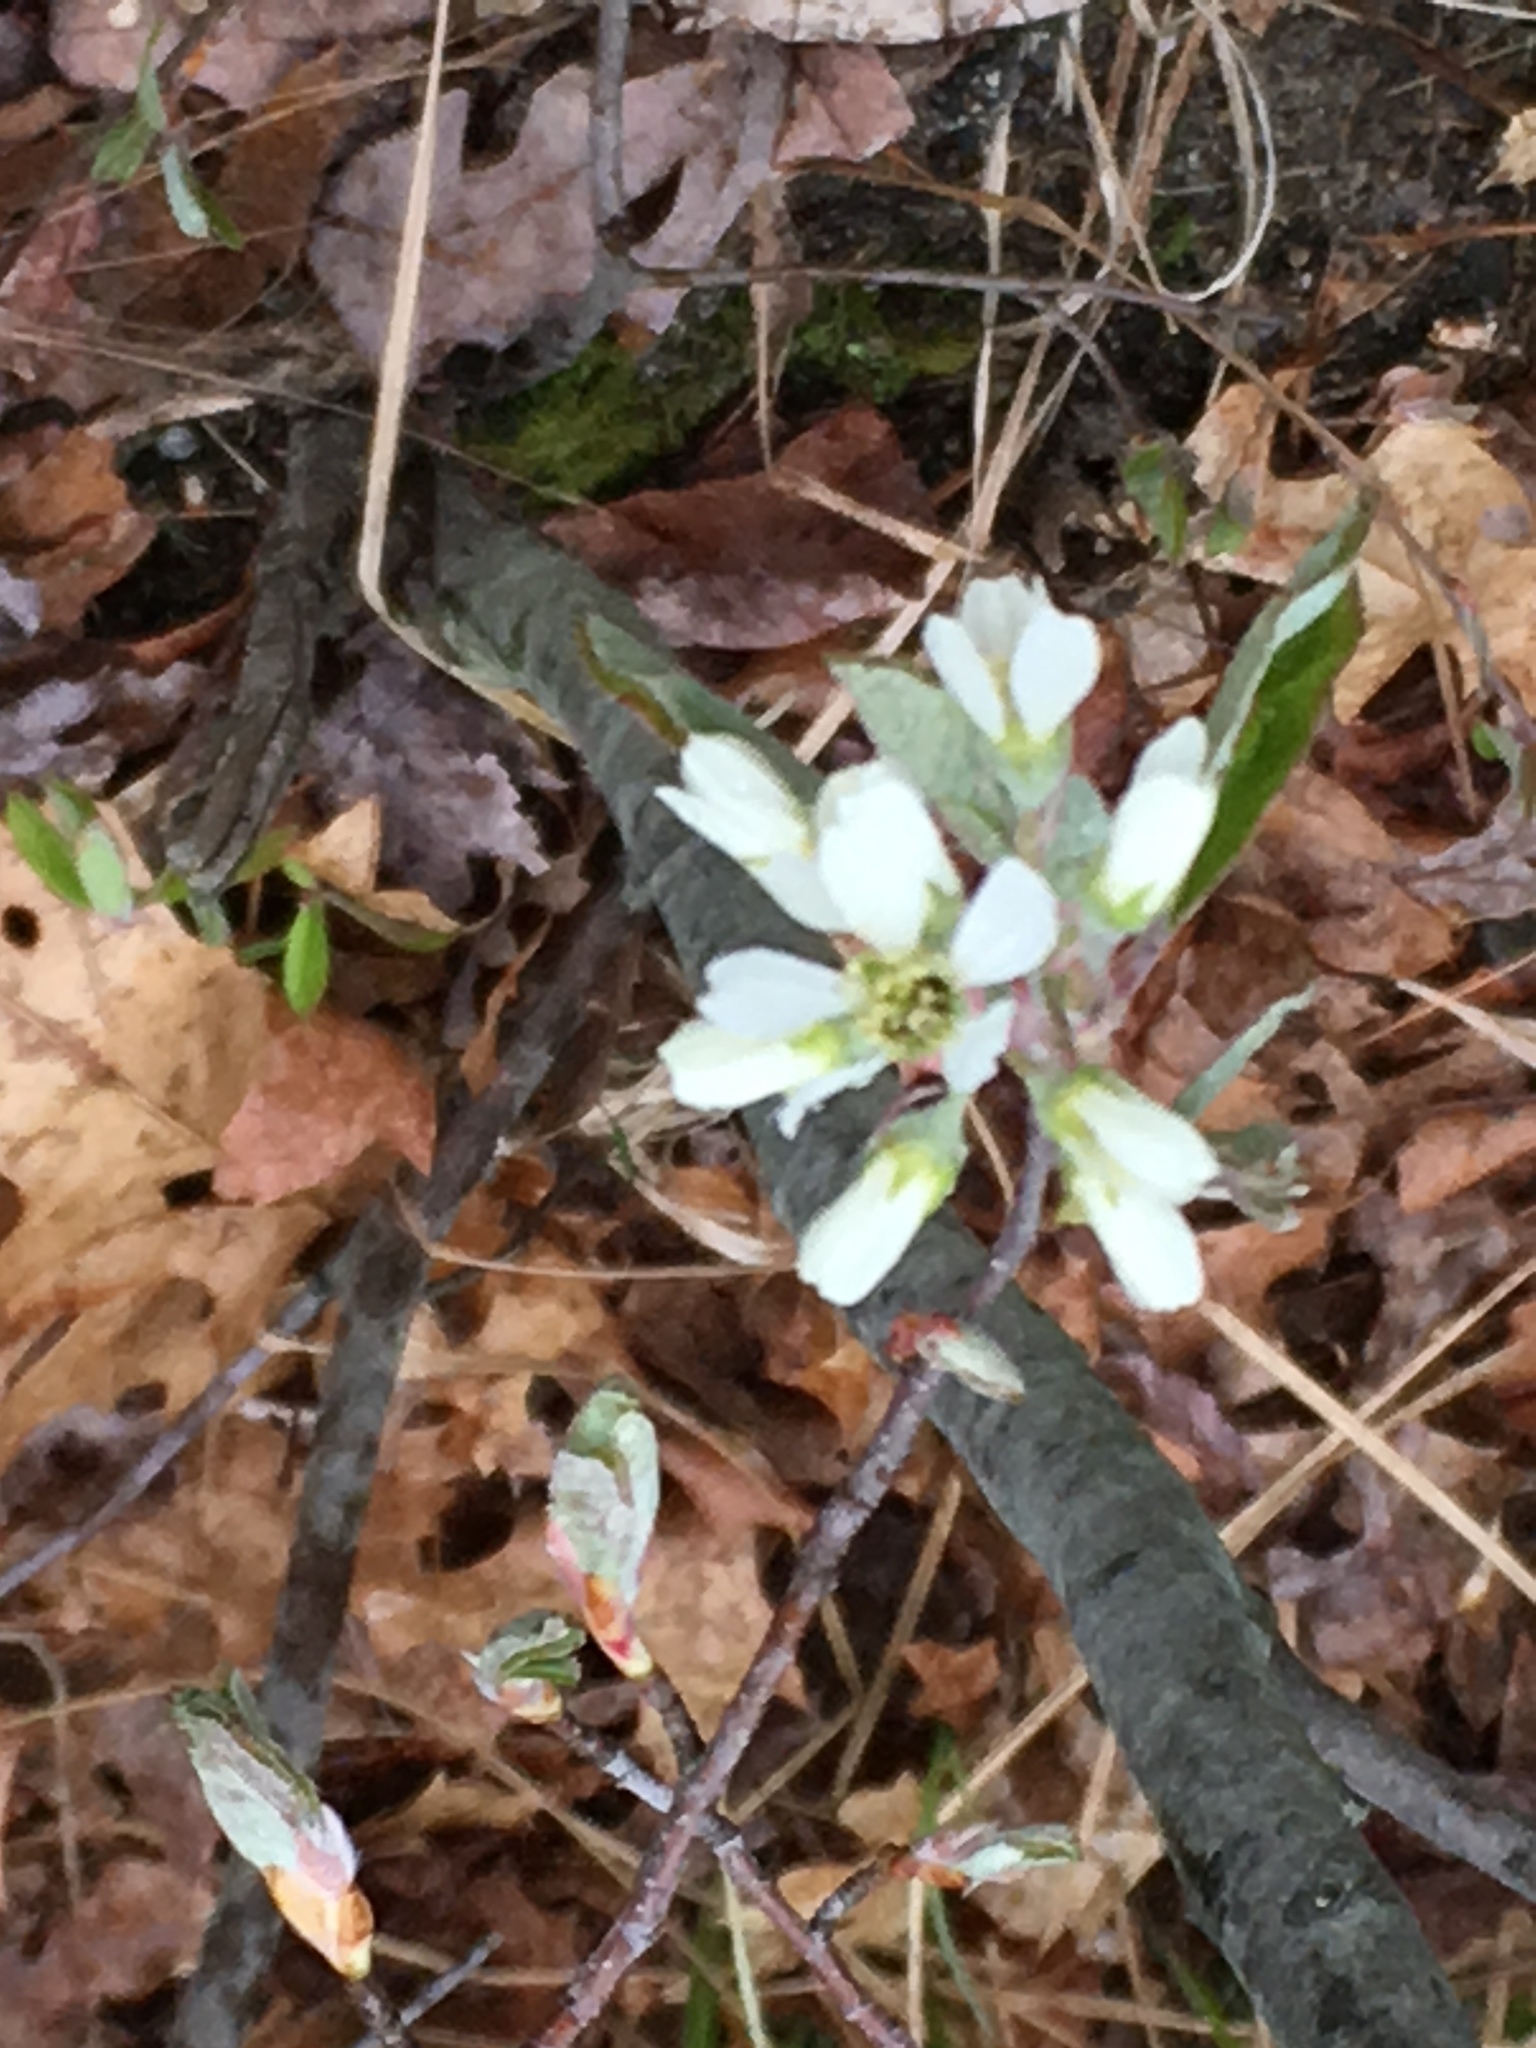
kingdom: Plantae
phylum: Tracheophyta
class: Magnoliopsida
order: Rosales
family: Rosaceae
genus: Amelanchier
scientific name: Amelanchier arborea
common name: Downy serviceberry
